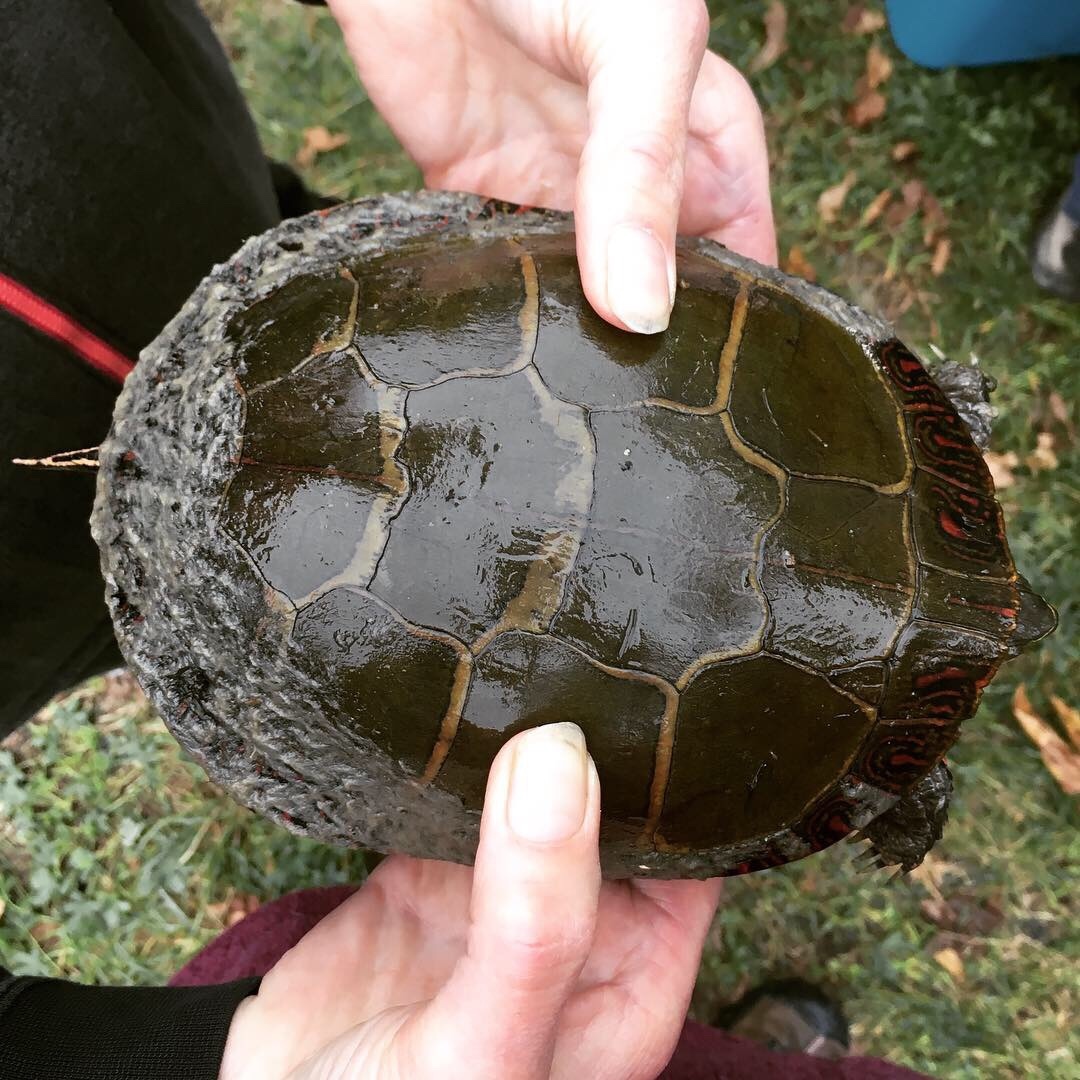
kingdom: Animalia
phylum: Chordata
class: Testudines
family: Emydidae
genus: Chrysemys
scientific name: Chrysemys picta
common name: Painted turtle
